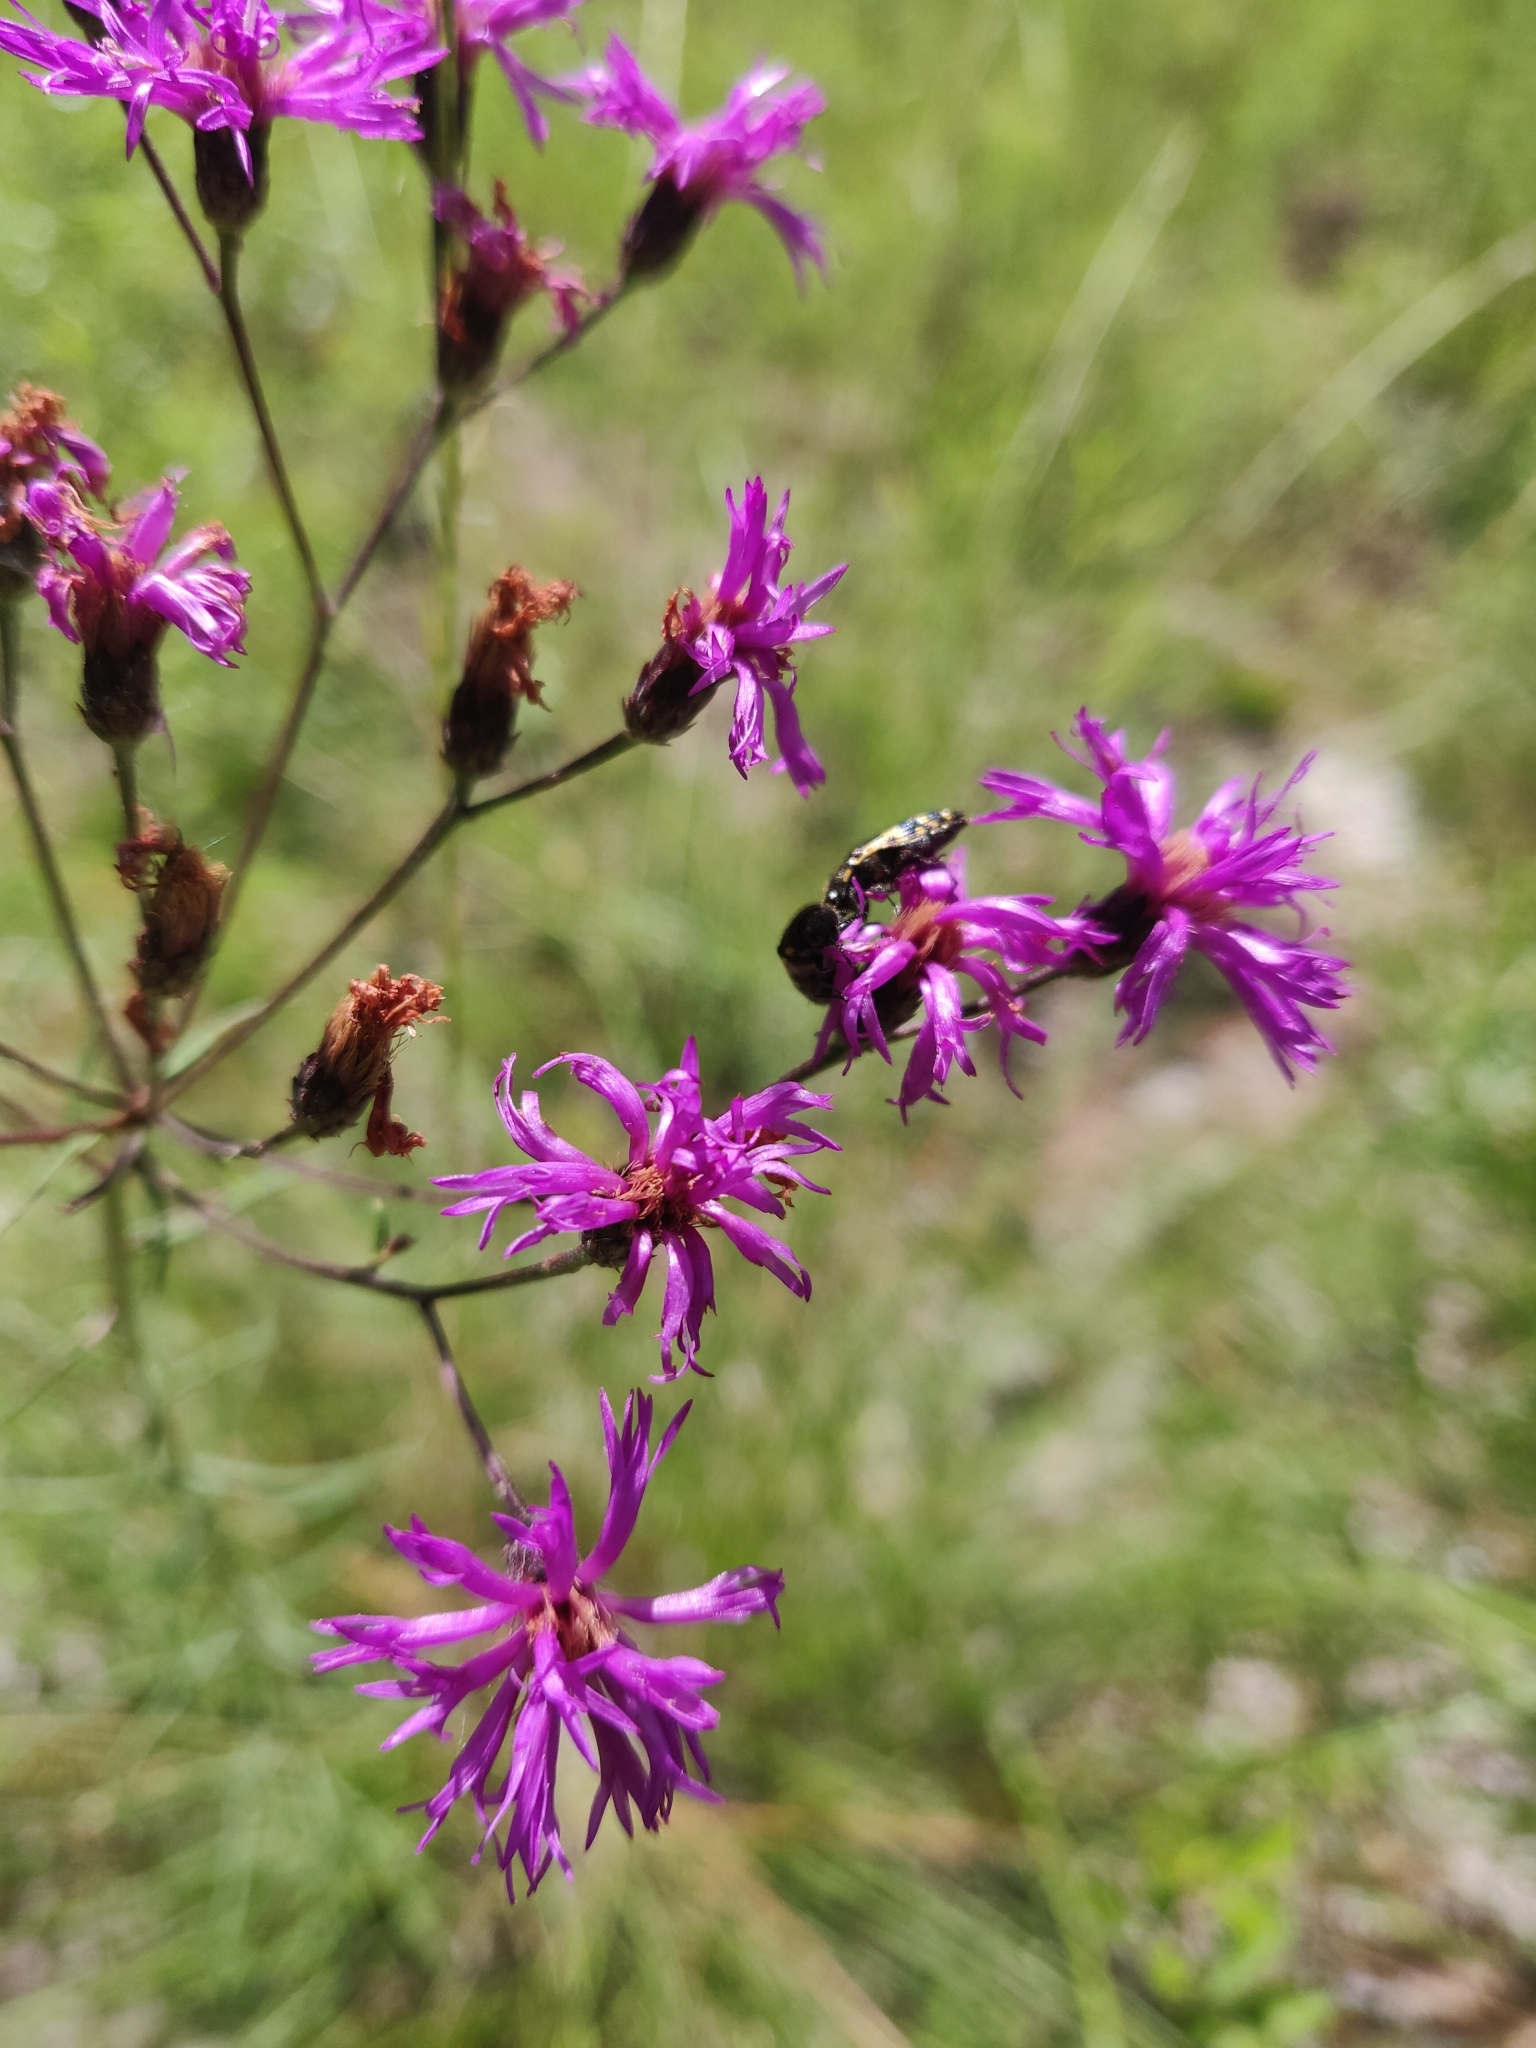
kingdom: Plantae
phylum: Tracheophyta
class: Magnoliopsida
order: Asterales
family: Asteraceae
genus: Vernonia
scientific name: Vernonia angustifolia
